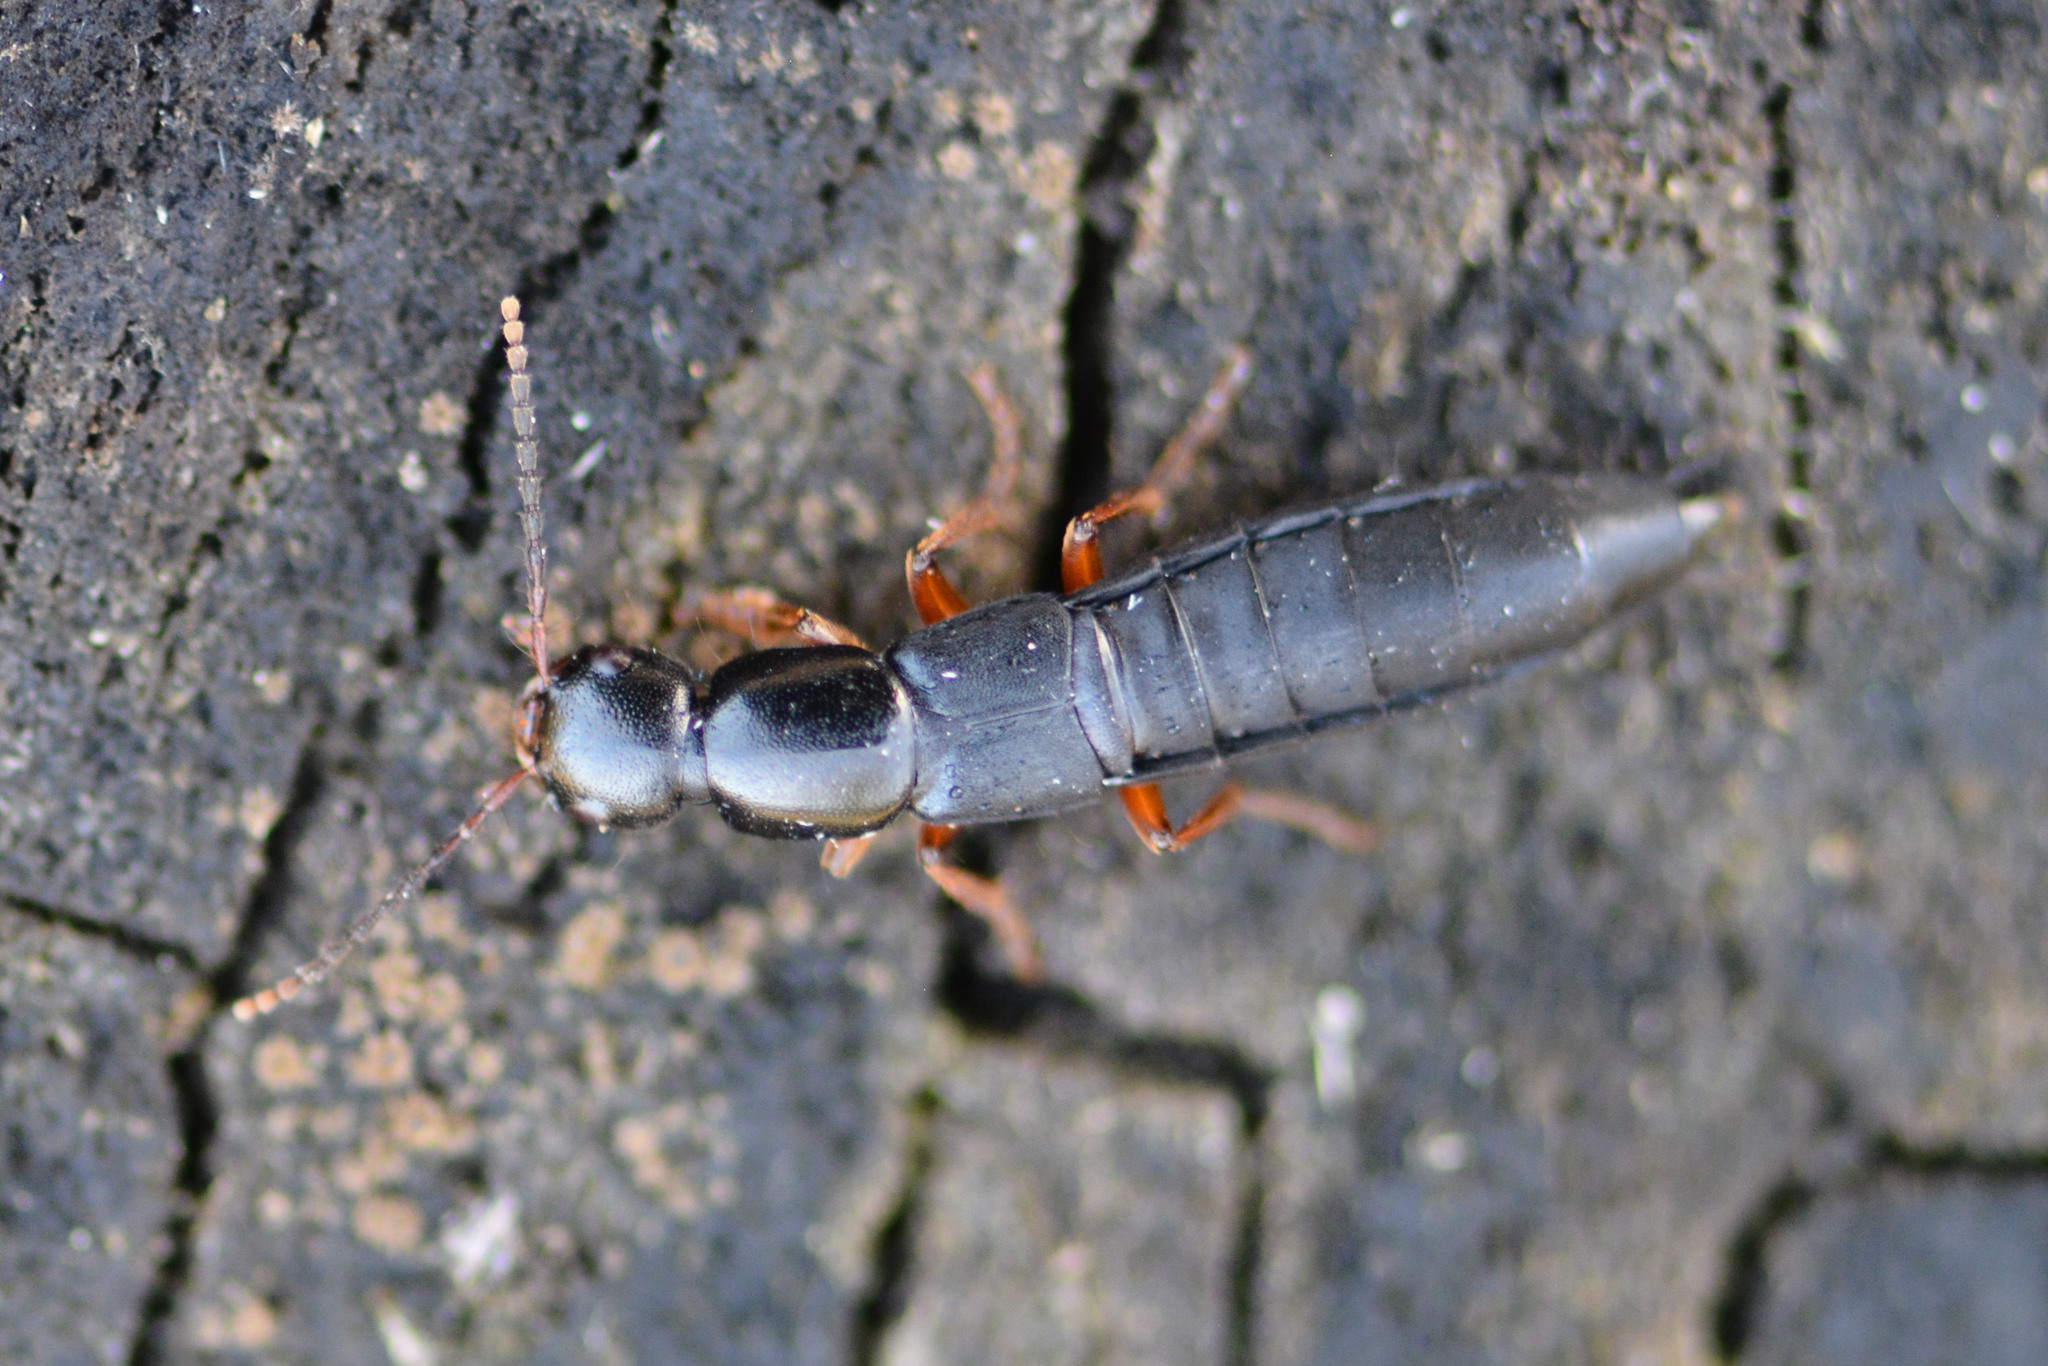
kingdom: Animalia
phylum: Arthropoda
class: Insecta
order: Coleoptera
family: Staphylinidae
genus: Ocypus
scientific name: Ocypus brunnipes
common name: Rove beetle
